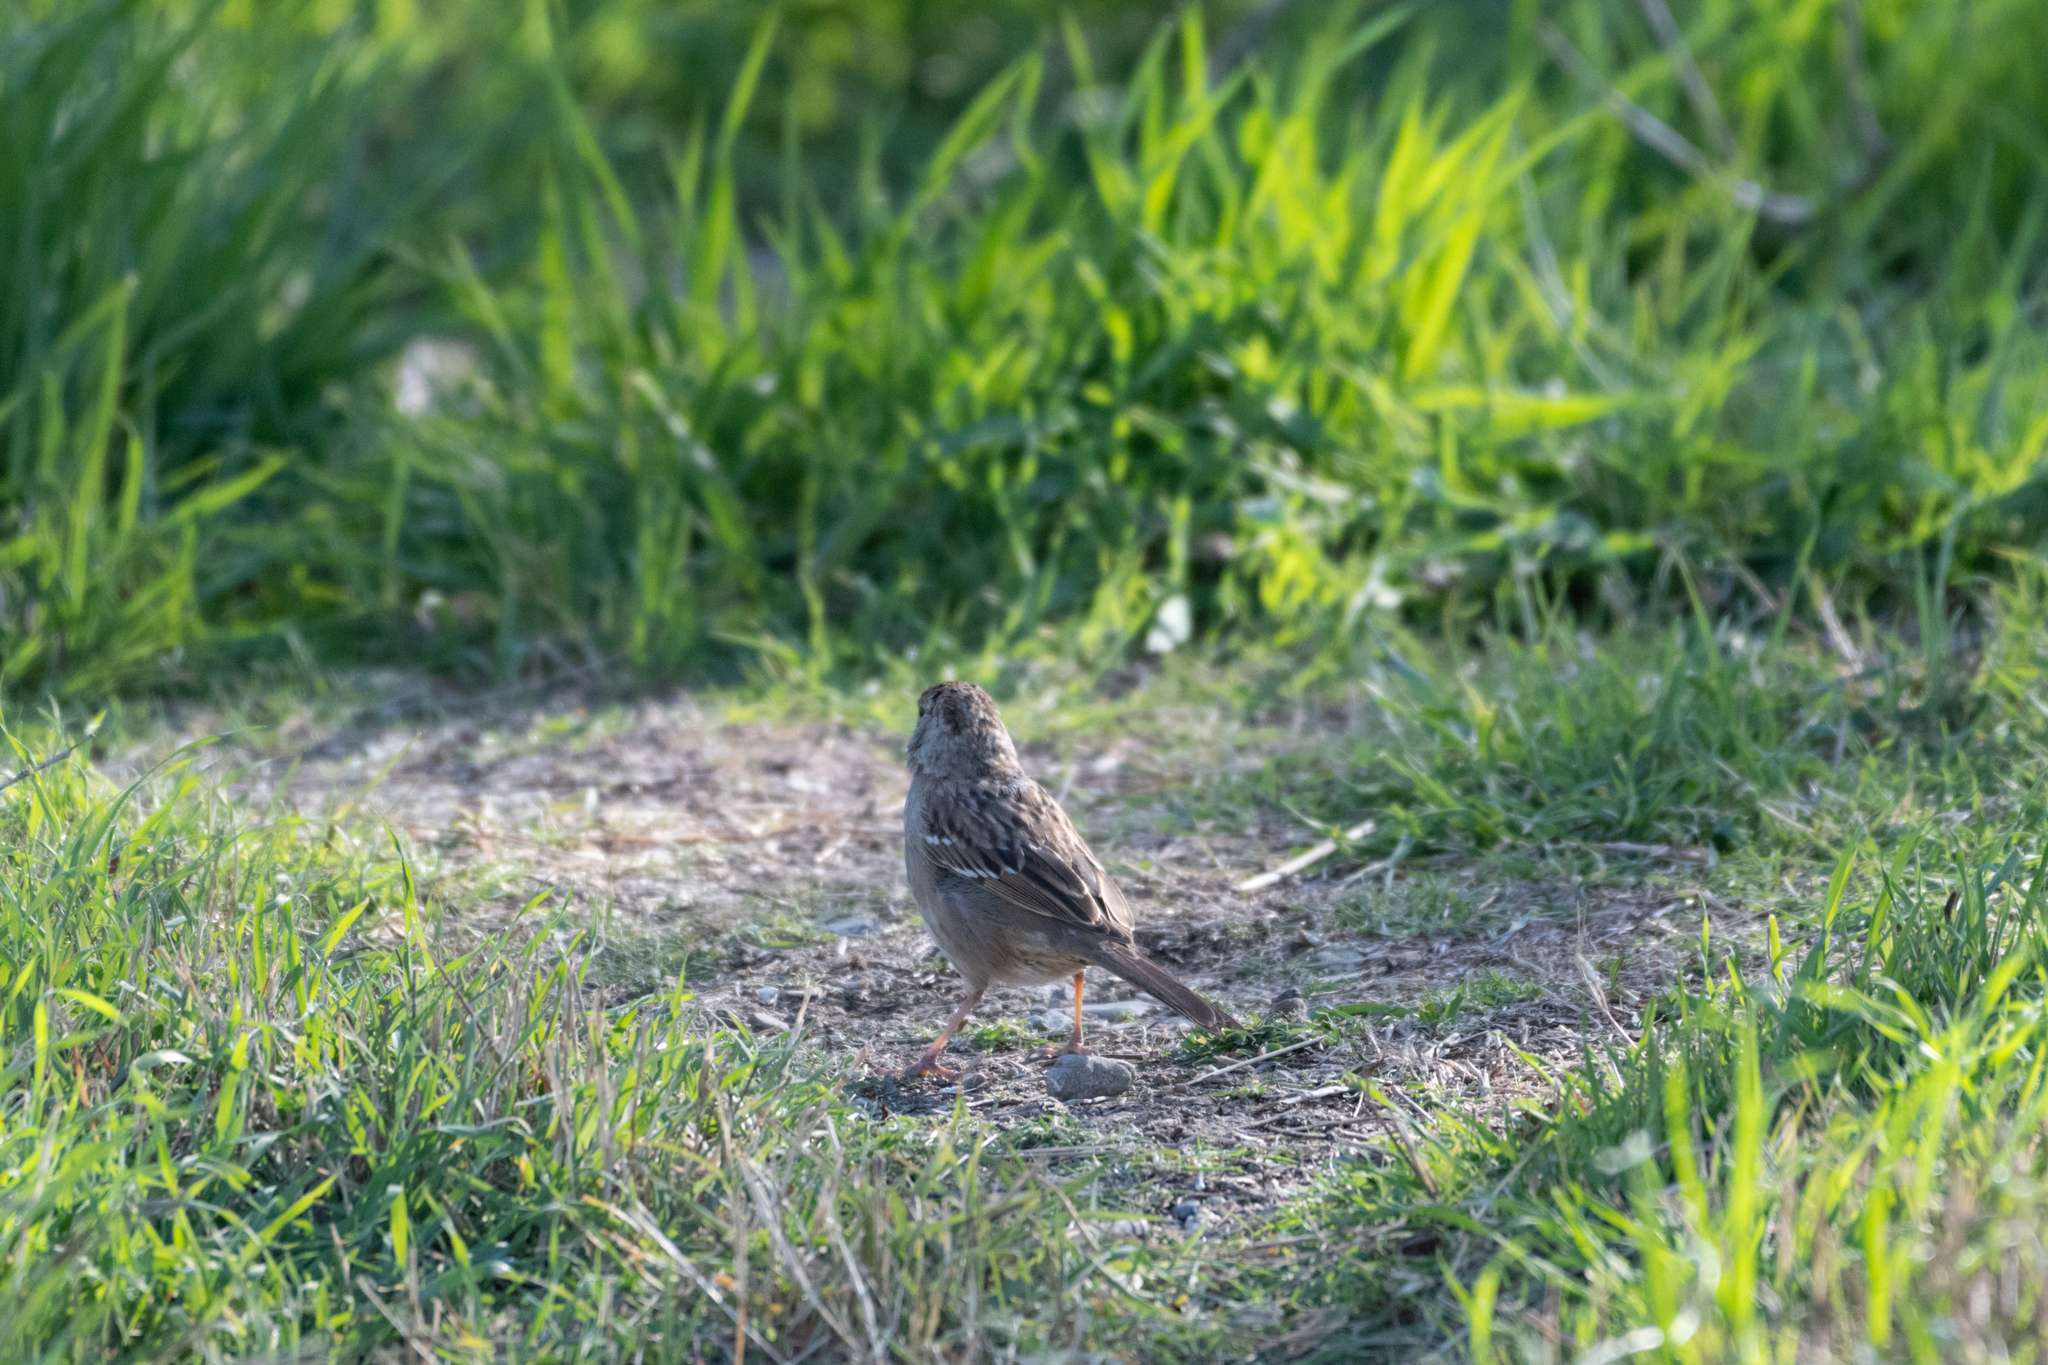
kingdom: Animalia
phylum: Chordata
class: Aves
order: Passeriformes
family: Passerellidae
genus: Zonotrichia
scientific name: Zonotrichia atricapilla
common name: Golden-crowned sparrow
